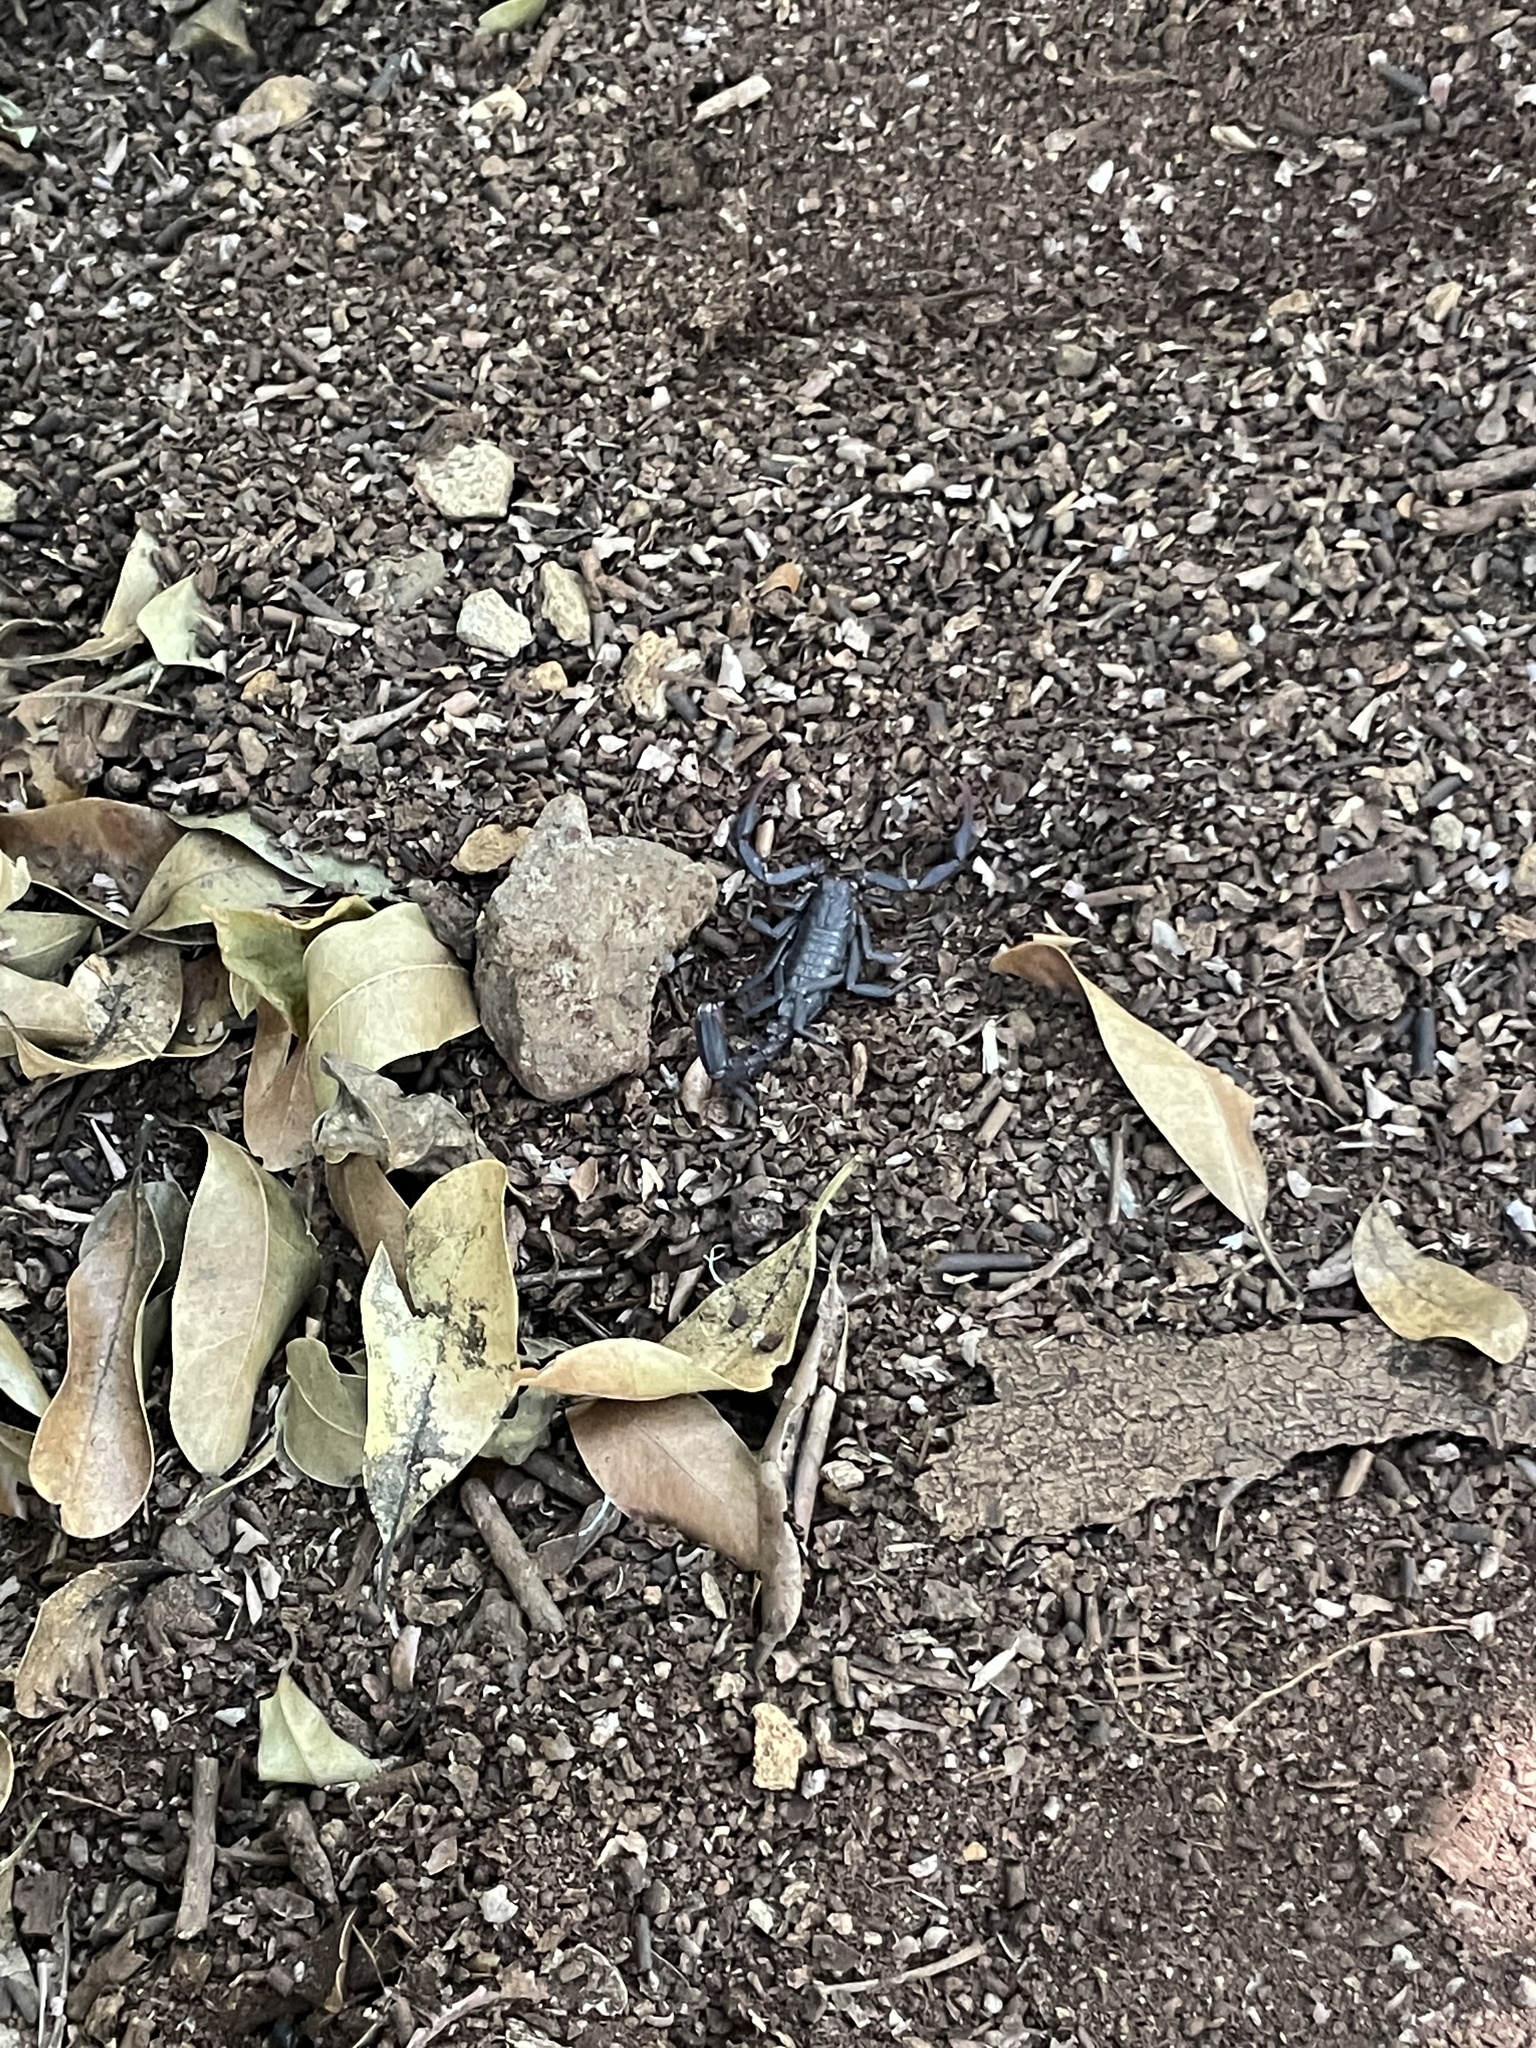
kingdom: Animalia
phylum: Arthropoda
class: Arachnida
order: Scorpiones
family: Vaejovidae
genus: Vaejovis
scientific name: Vaejovis janssi
